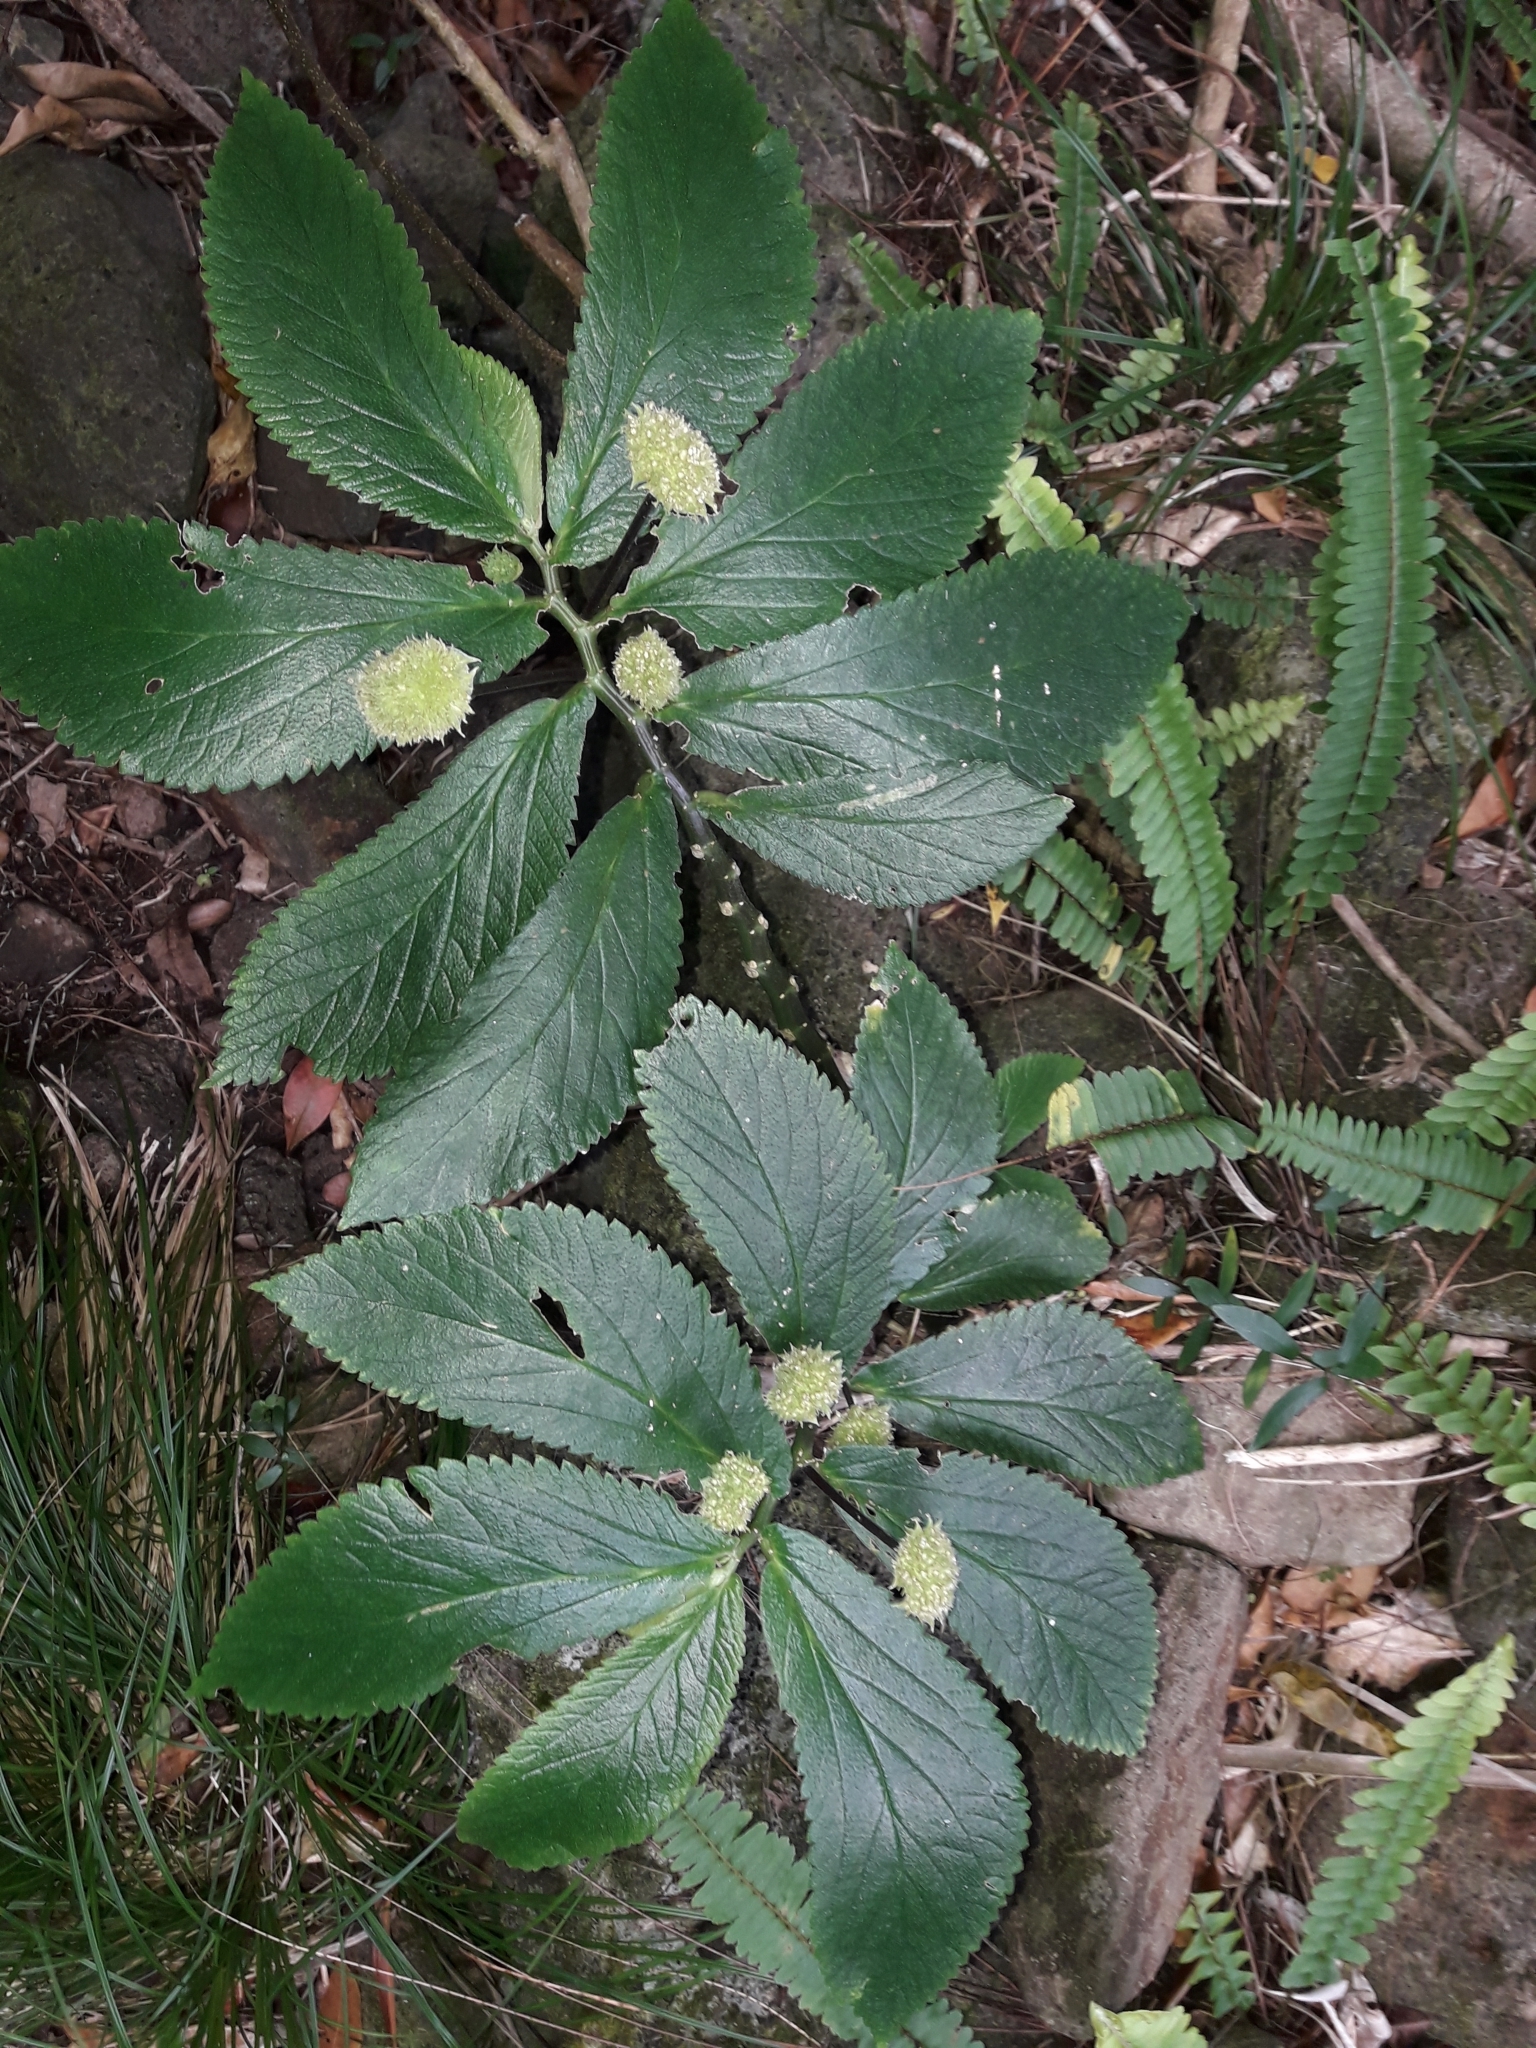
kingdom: Plantae
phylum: Tracheophyta
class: Magnoliopsida
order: Rosales
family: Urticaceae
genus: Elatostema
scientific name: Elatostema reticulatum
